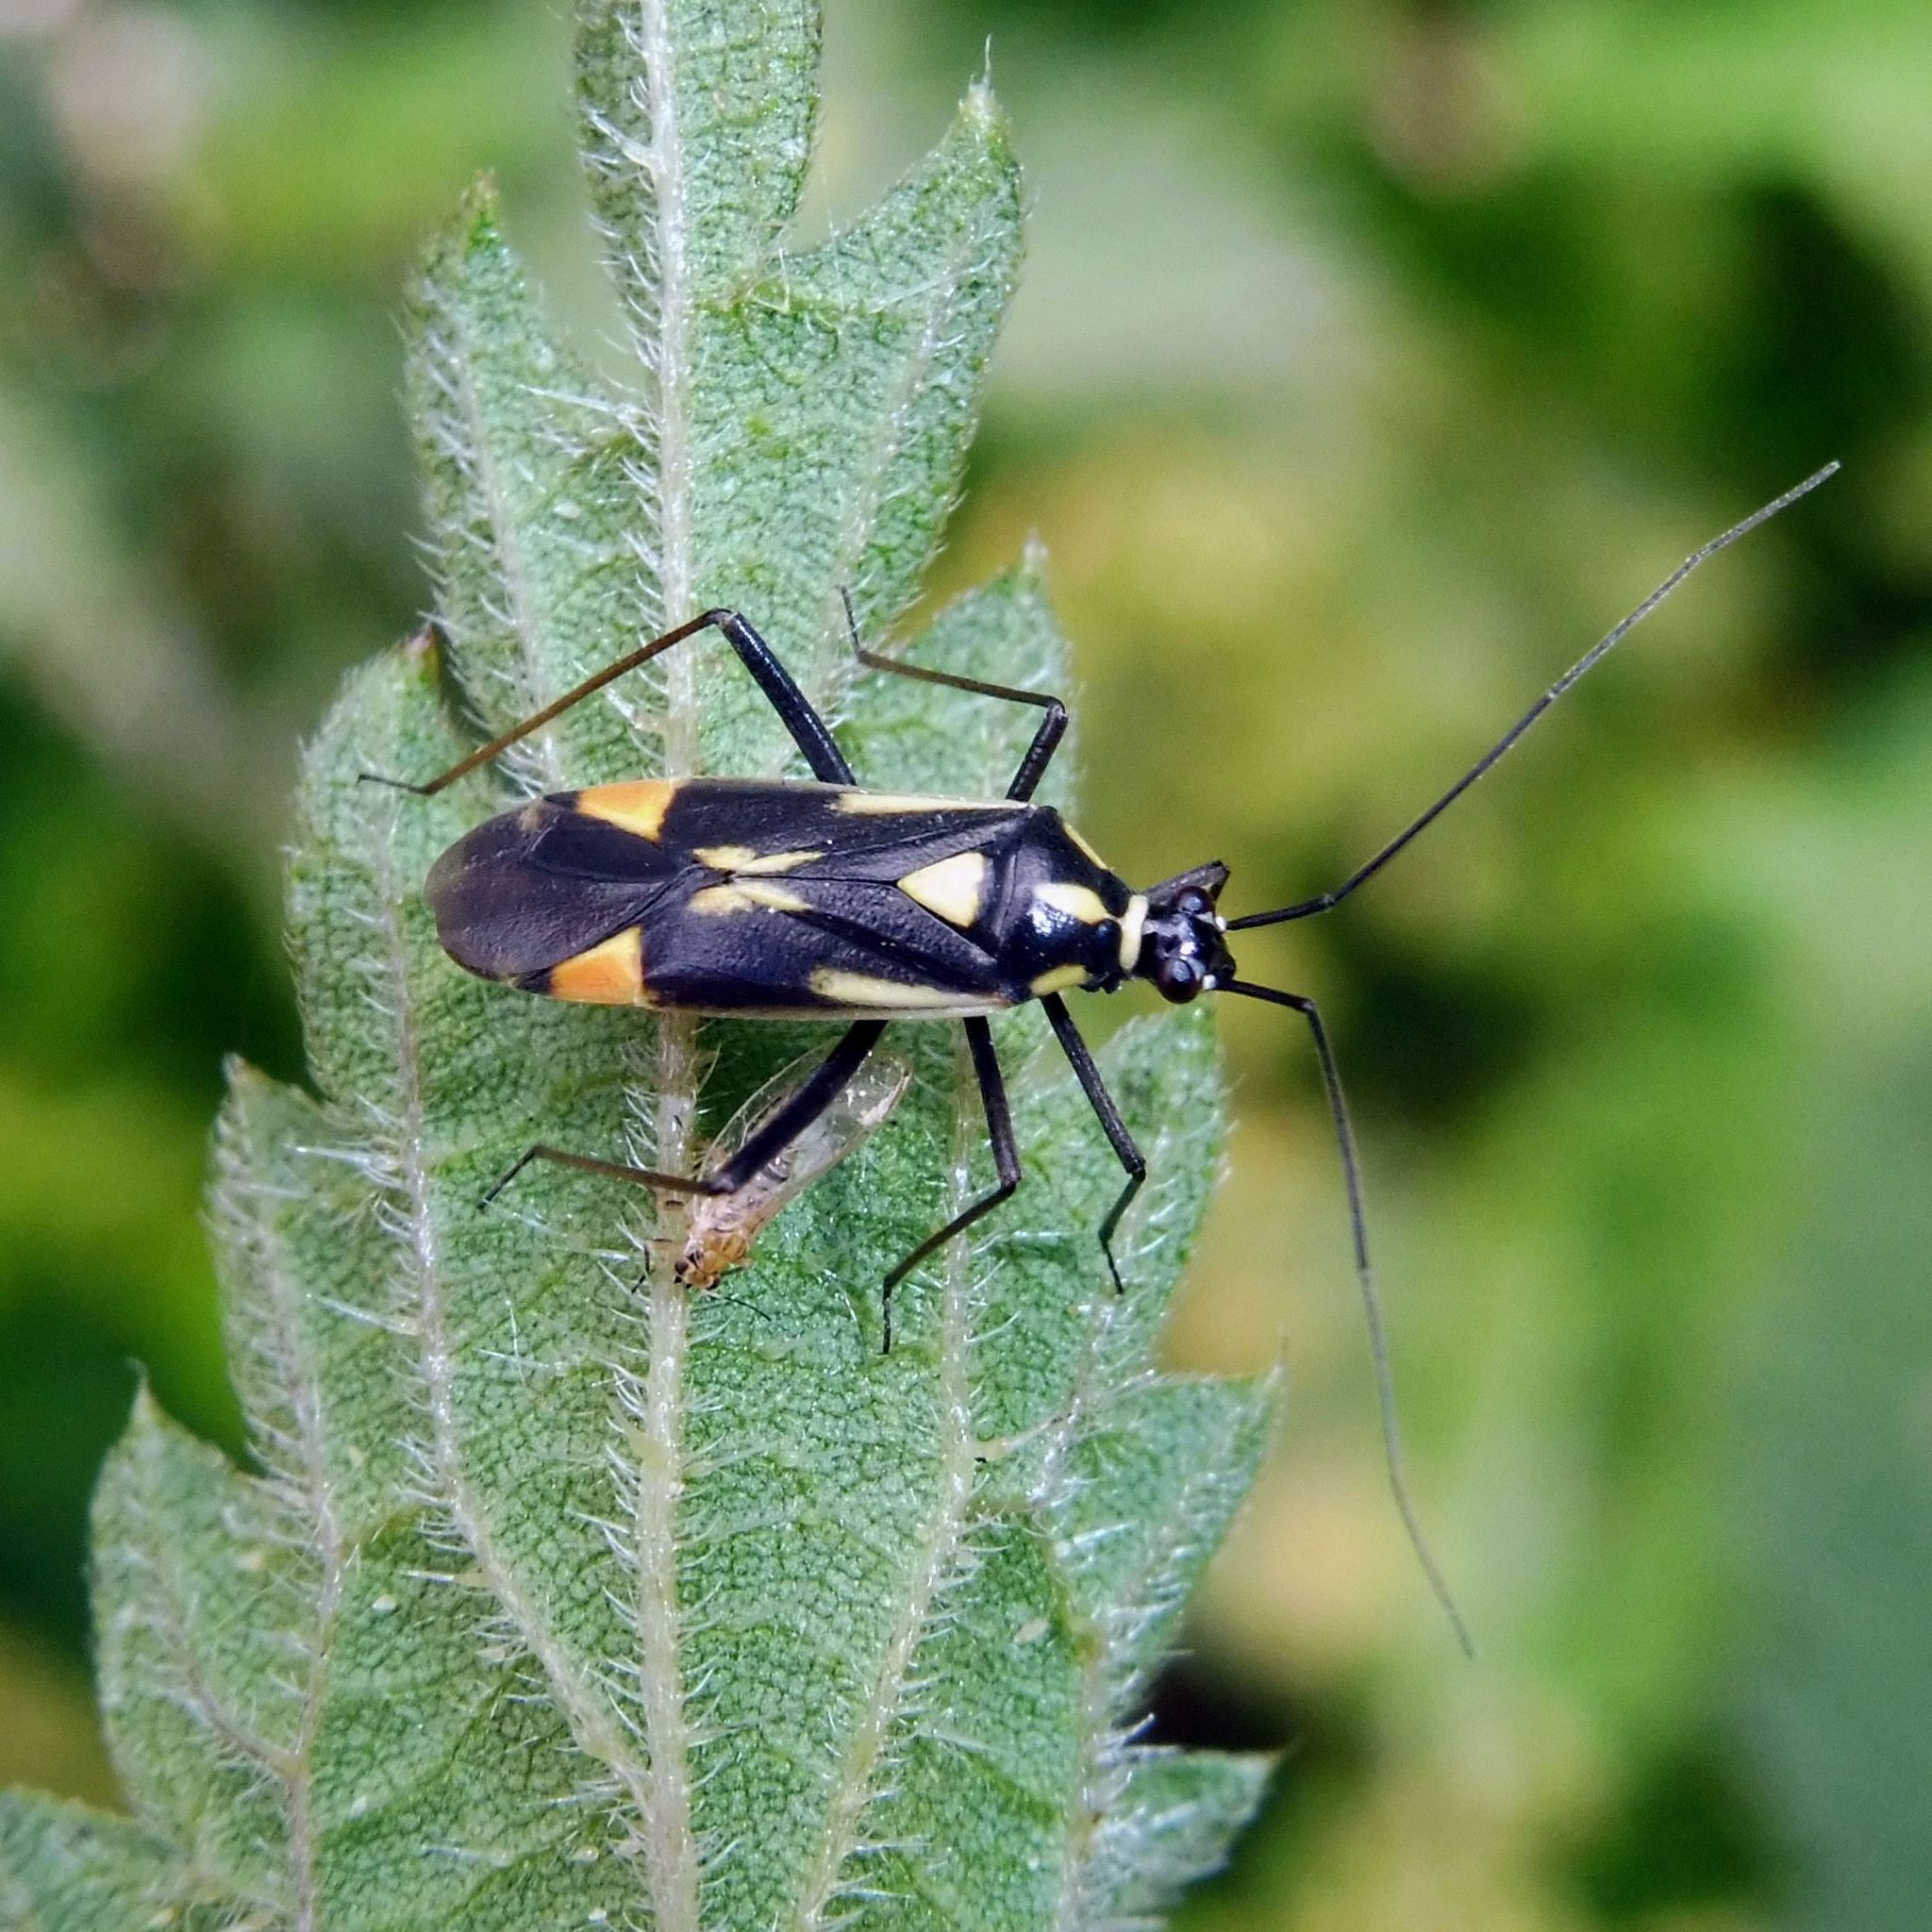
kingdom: Animalia
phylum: Arthropoda
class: Insecta
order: Hemiptera
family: Miridae
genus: Grypocoris
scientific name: Grypocoris stysi
